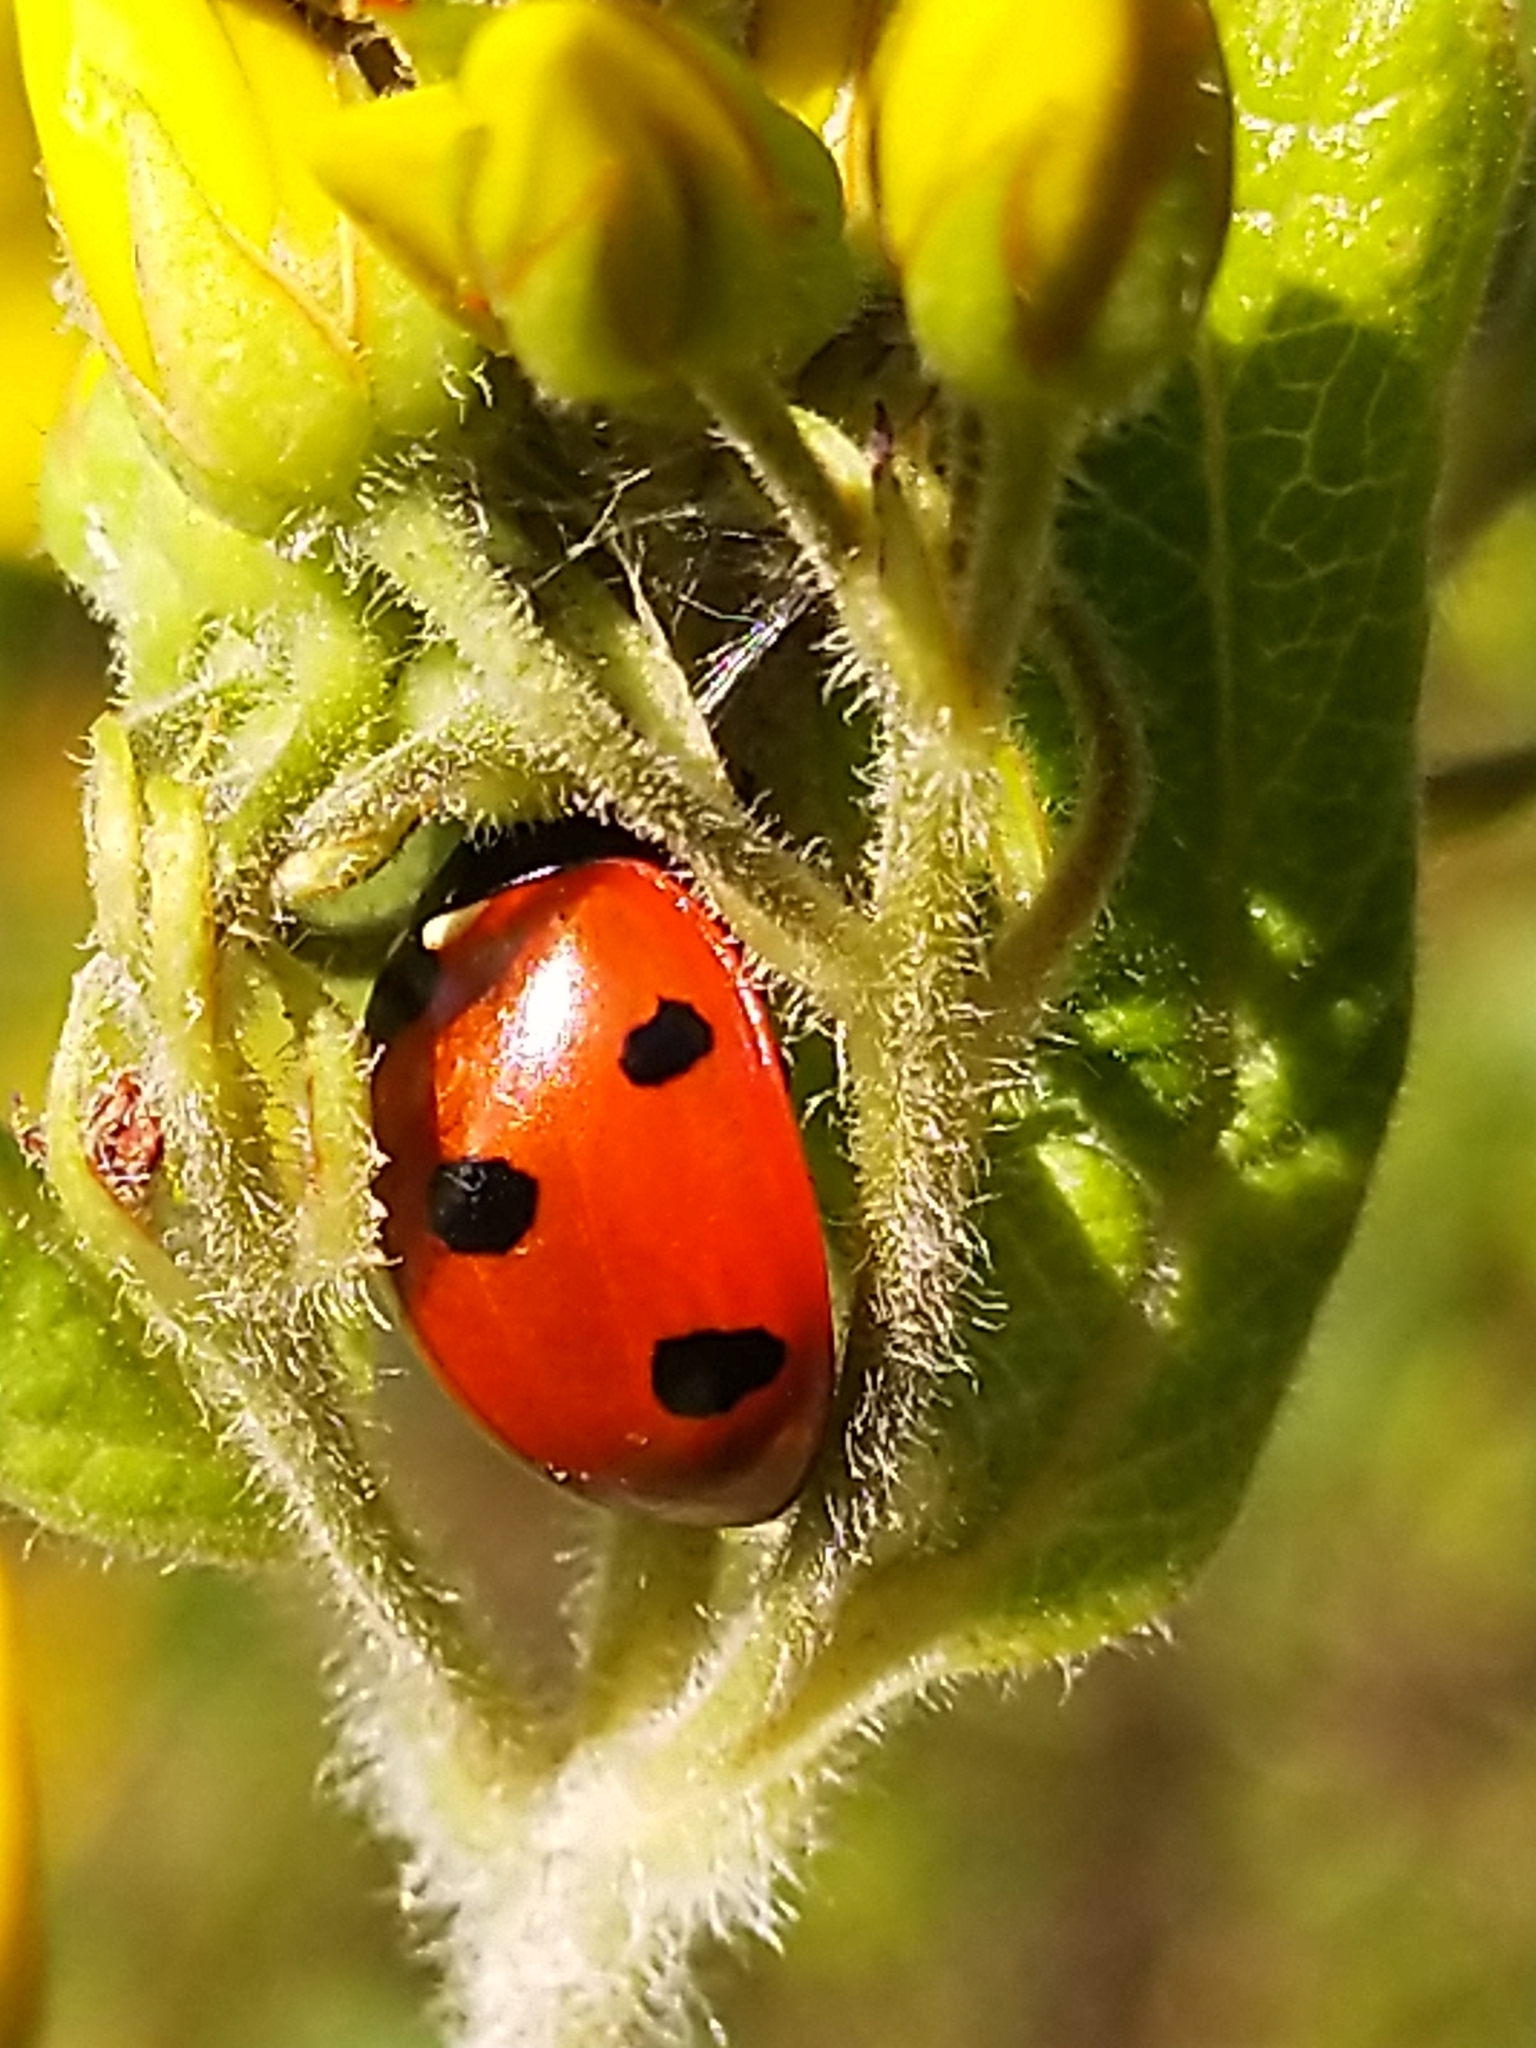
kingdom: Animalia
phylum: Arthropoda
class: Insecta
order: Coleoptera
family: Coccinellidae
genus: Coccinella
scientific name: Coccinella septempunctata
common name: Sevenspotted lady beetle
